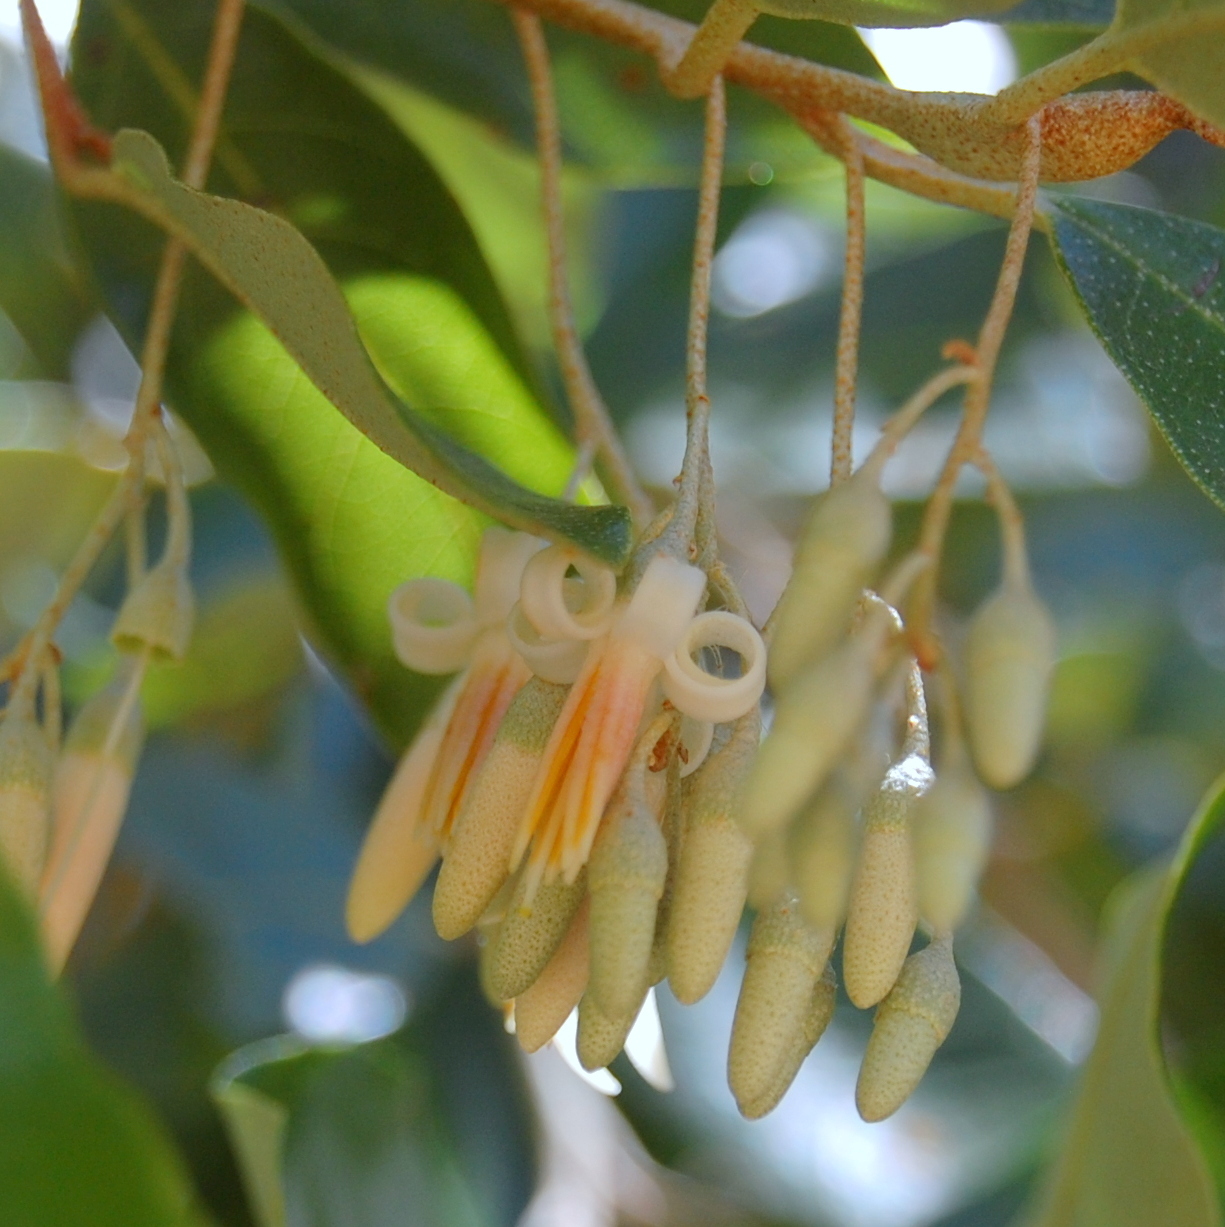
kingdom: Plantae
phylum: Tracheophyta
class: Magnoliopsida
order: Ericales
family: Styracaceae
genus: Styrax
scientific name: Styrax leprosus
